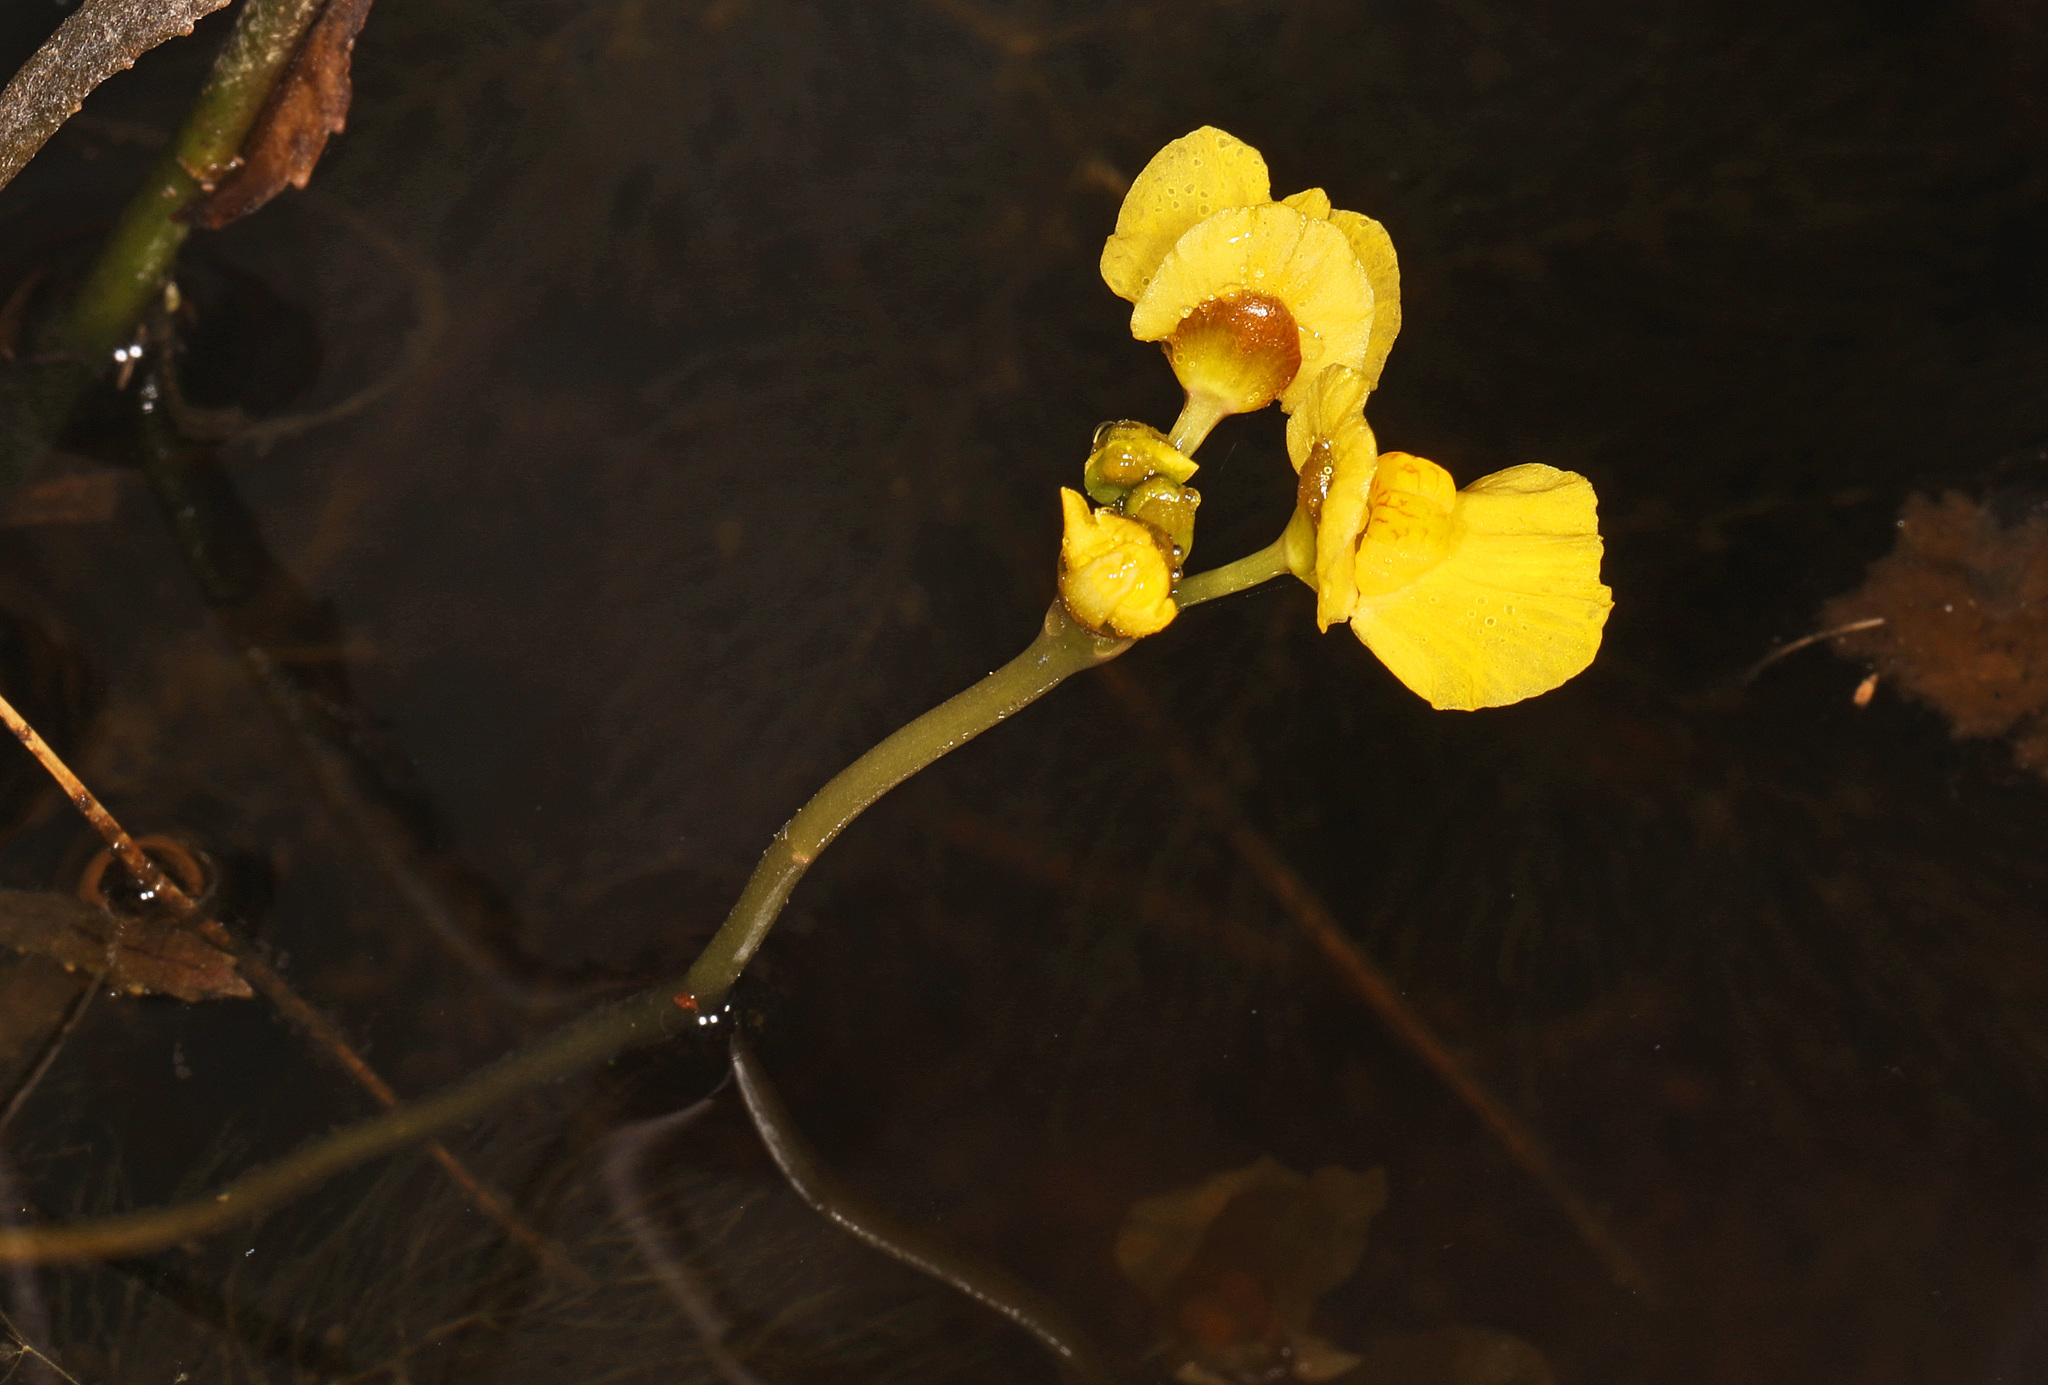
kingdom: Plantae
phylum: Tracheophyta
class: Magnoliopsida
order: Lamiales
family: Lentibulariaceae
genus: Utricularia
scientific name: Utricularia foliosa
